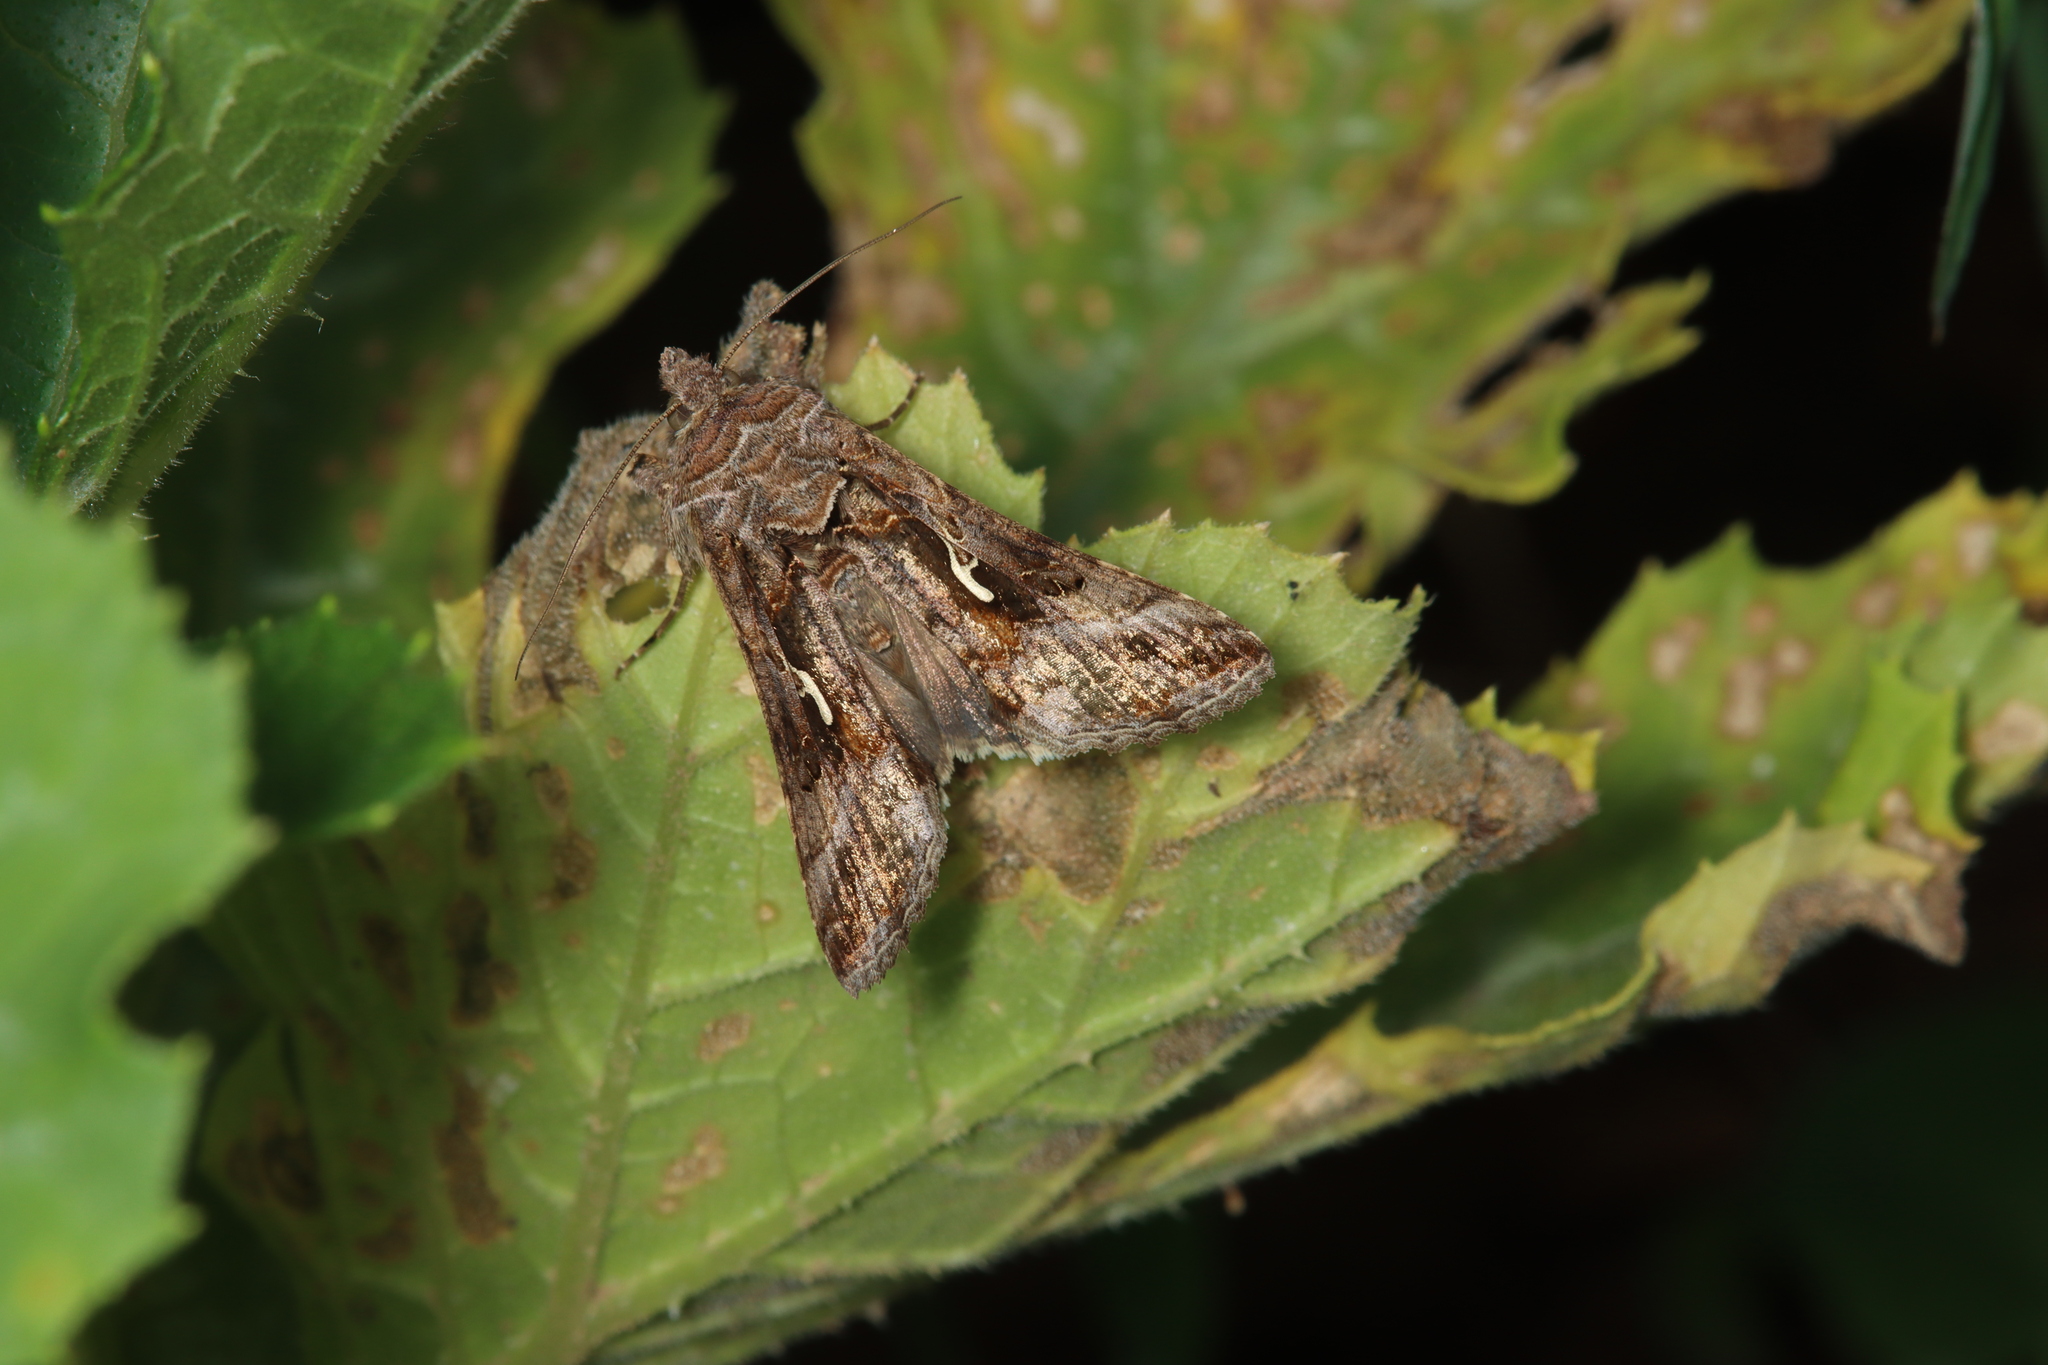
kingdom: Animalia
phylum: Arthropoda
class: Insecta
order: Lepidoptera
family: Noctuidae
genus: Autographa
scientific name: Autographa gamma
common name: Silver y
